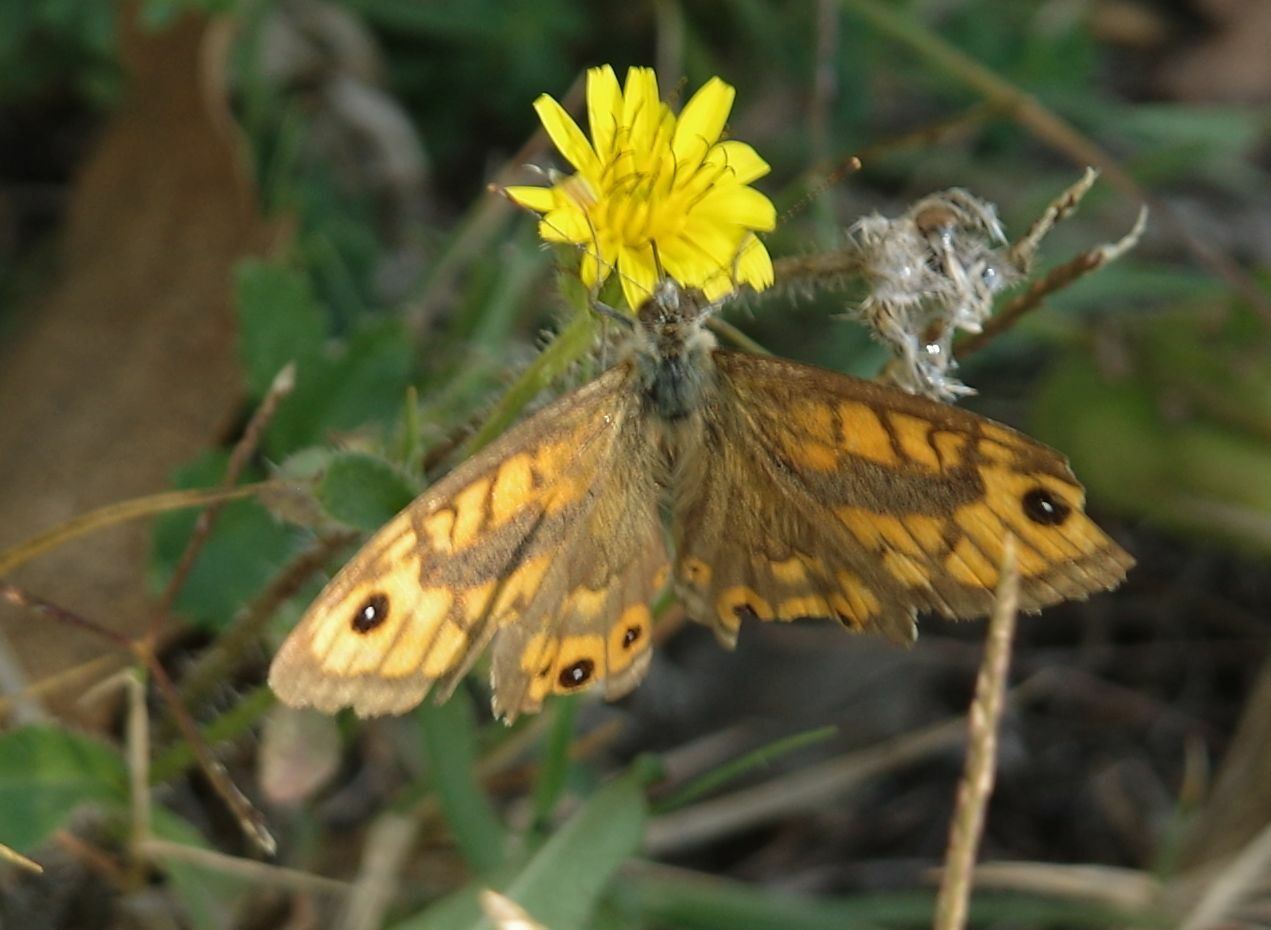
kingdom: Animalia
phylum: Arthropoda
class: Insecta
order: Lepidoptera
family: Nymphalidae
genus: Pararge
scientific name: Pararge Lasiommata megera
